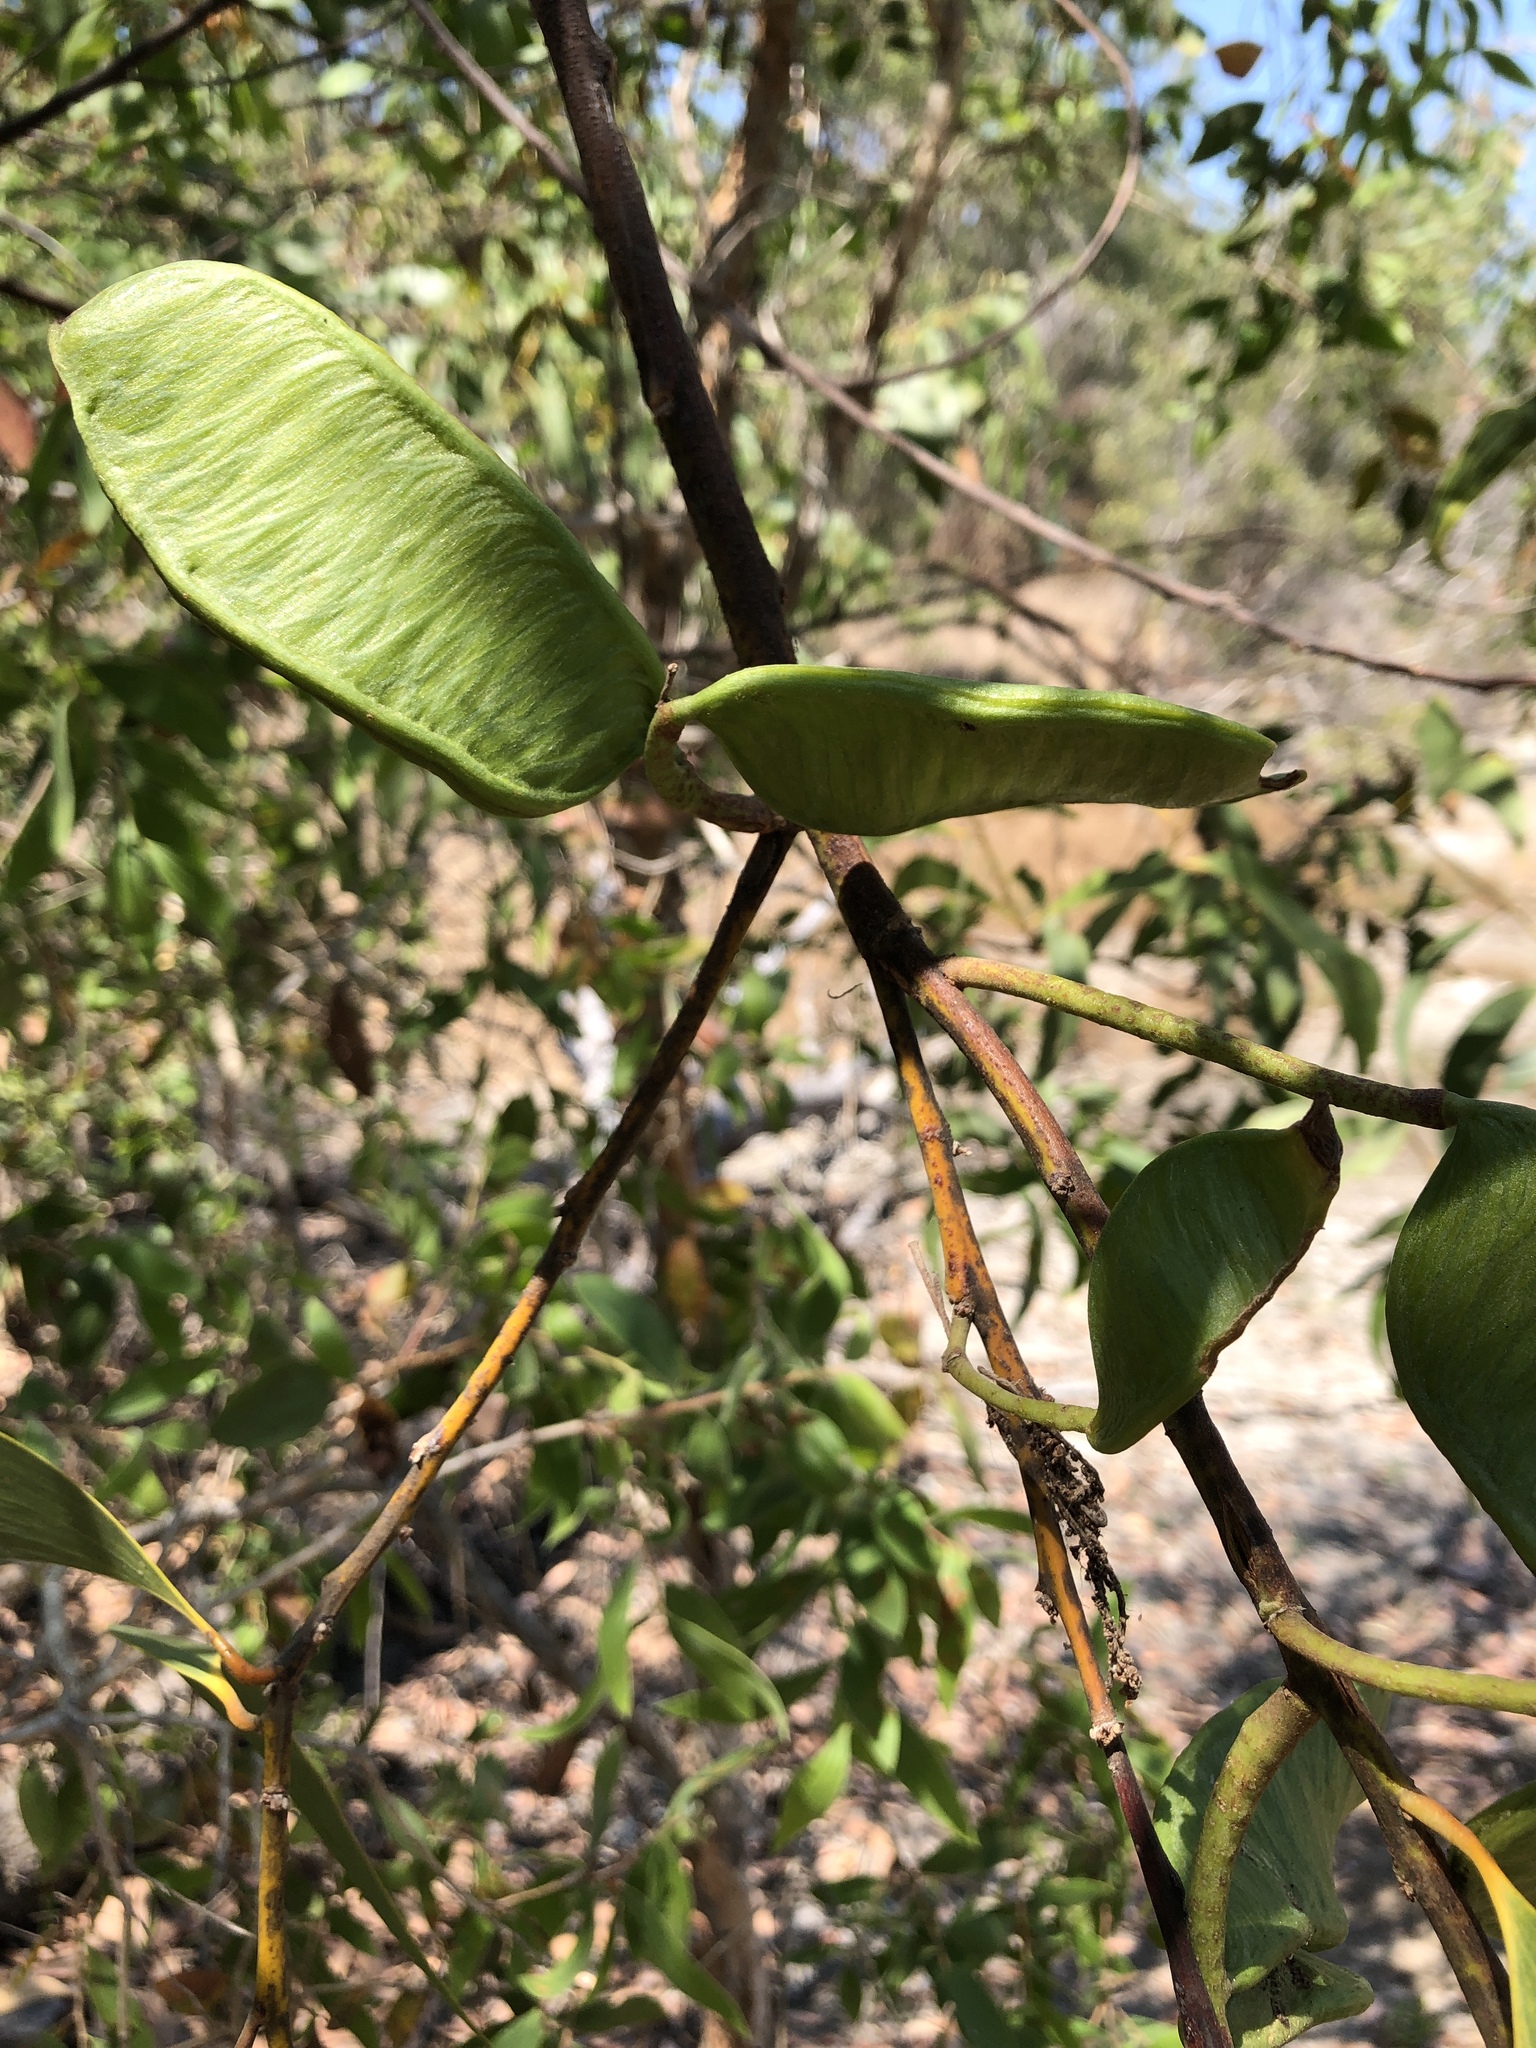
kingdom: Plantae
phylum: Tracheophyta
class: Magnoliopsida
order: Fabales
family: Fabaceae
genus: Acacia
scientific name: Acacia crassicarpa
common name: Northern wattle
